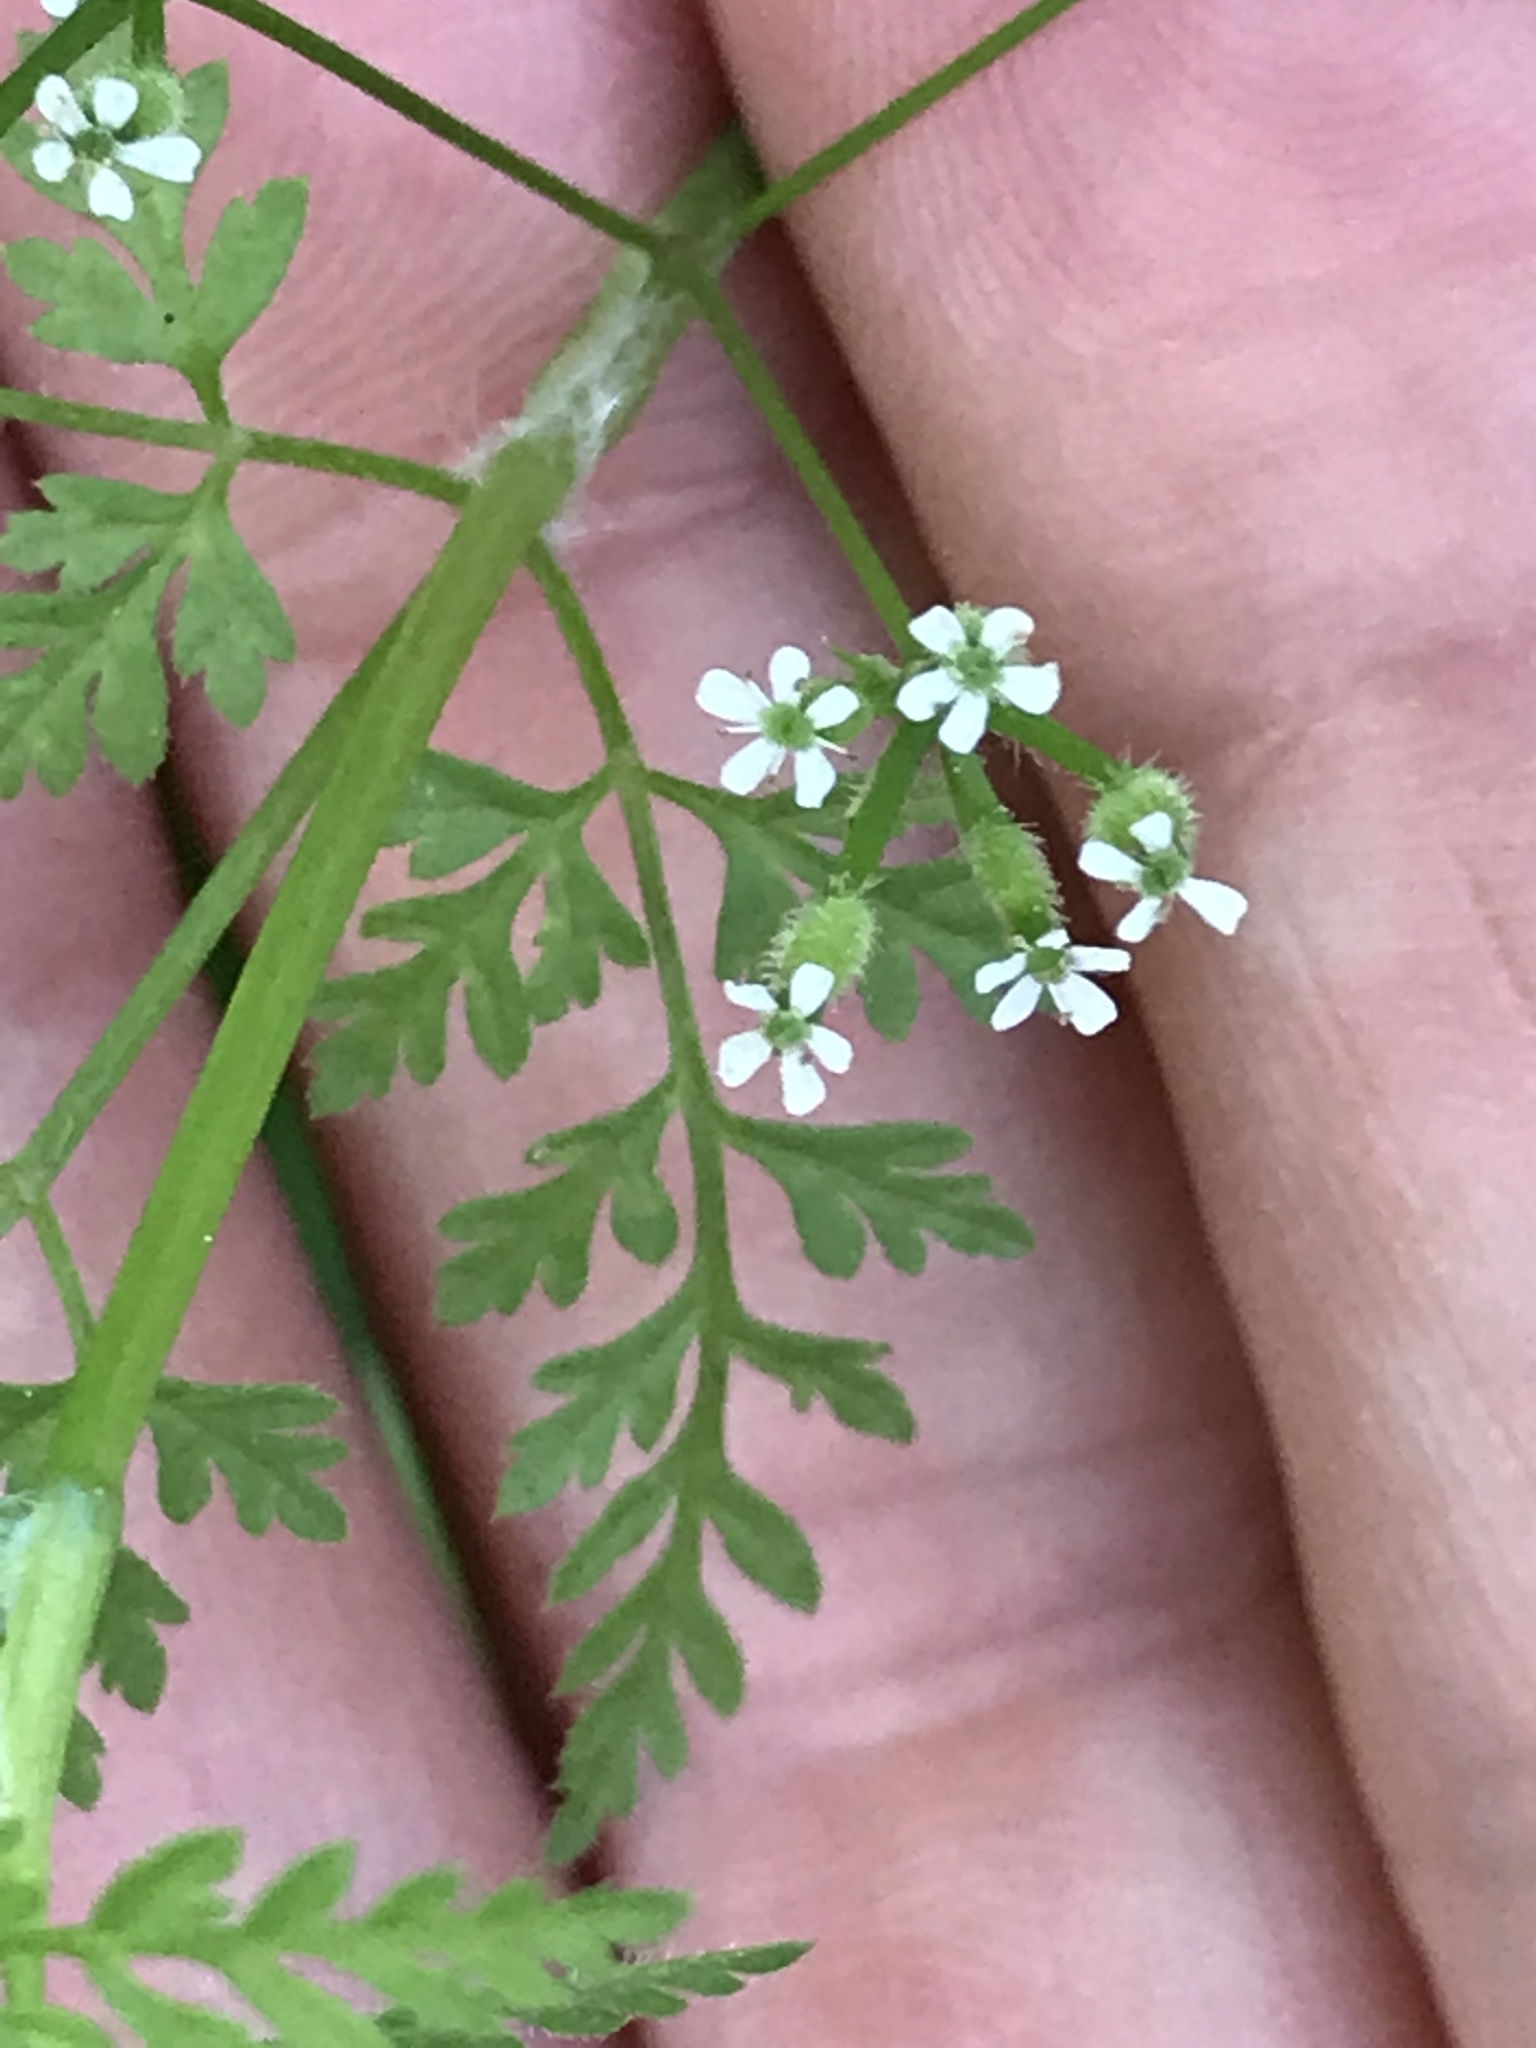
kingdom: Plantae
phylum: Tracheophyta
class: Magnoliopsida
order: Apiales
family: Apiaceae
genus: Anthriscus
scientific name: Anthriscus caucalis
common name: Bur chervil
